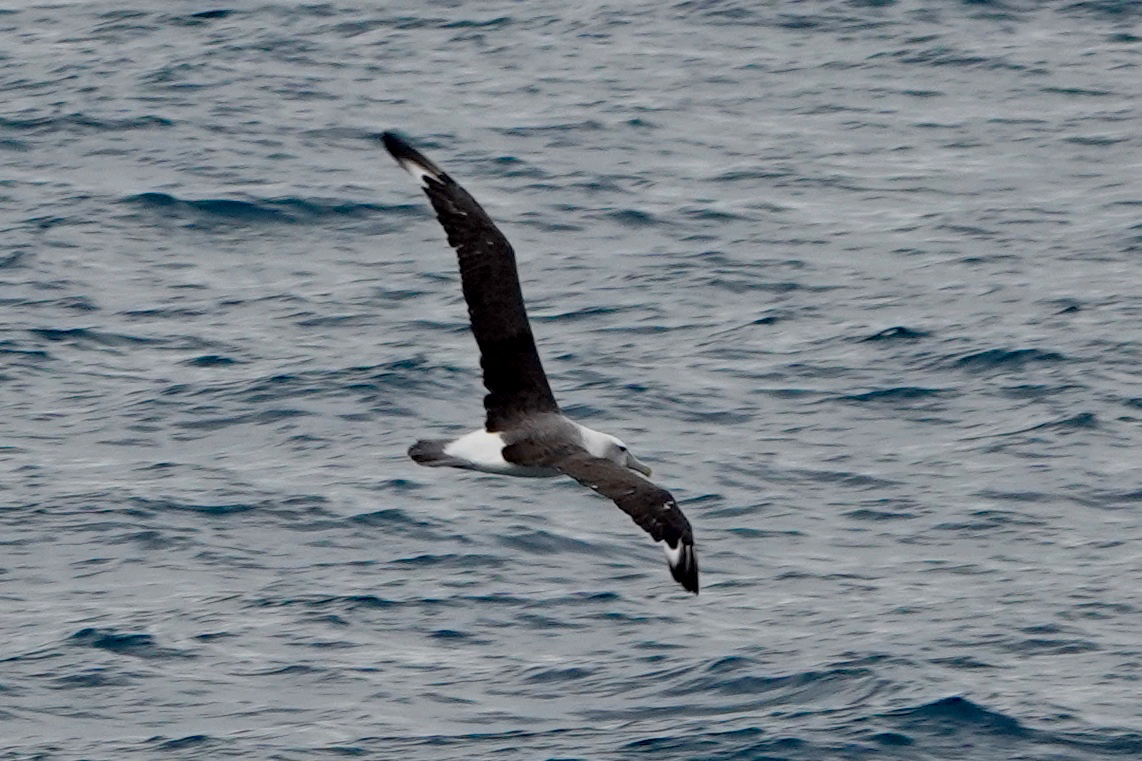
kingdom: Animalia
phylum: Chordata
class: Aves
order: Procellariiformes
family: Diomedeidae
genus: Thalassarche
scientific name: Thalassarche cauta
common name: Shy albatross
